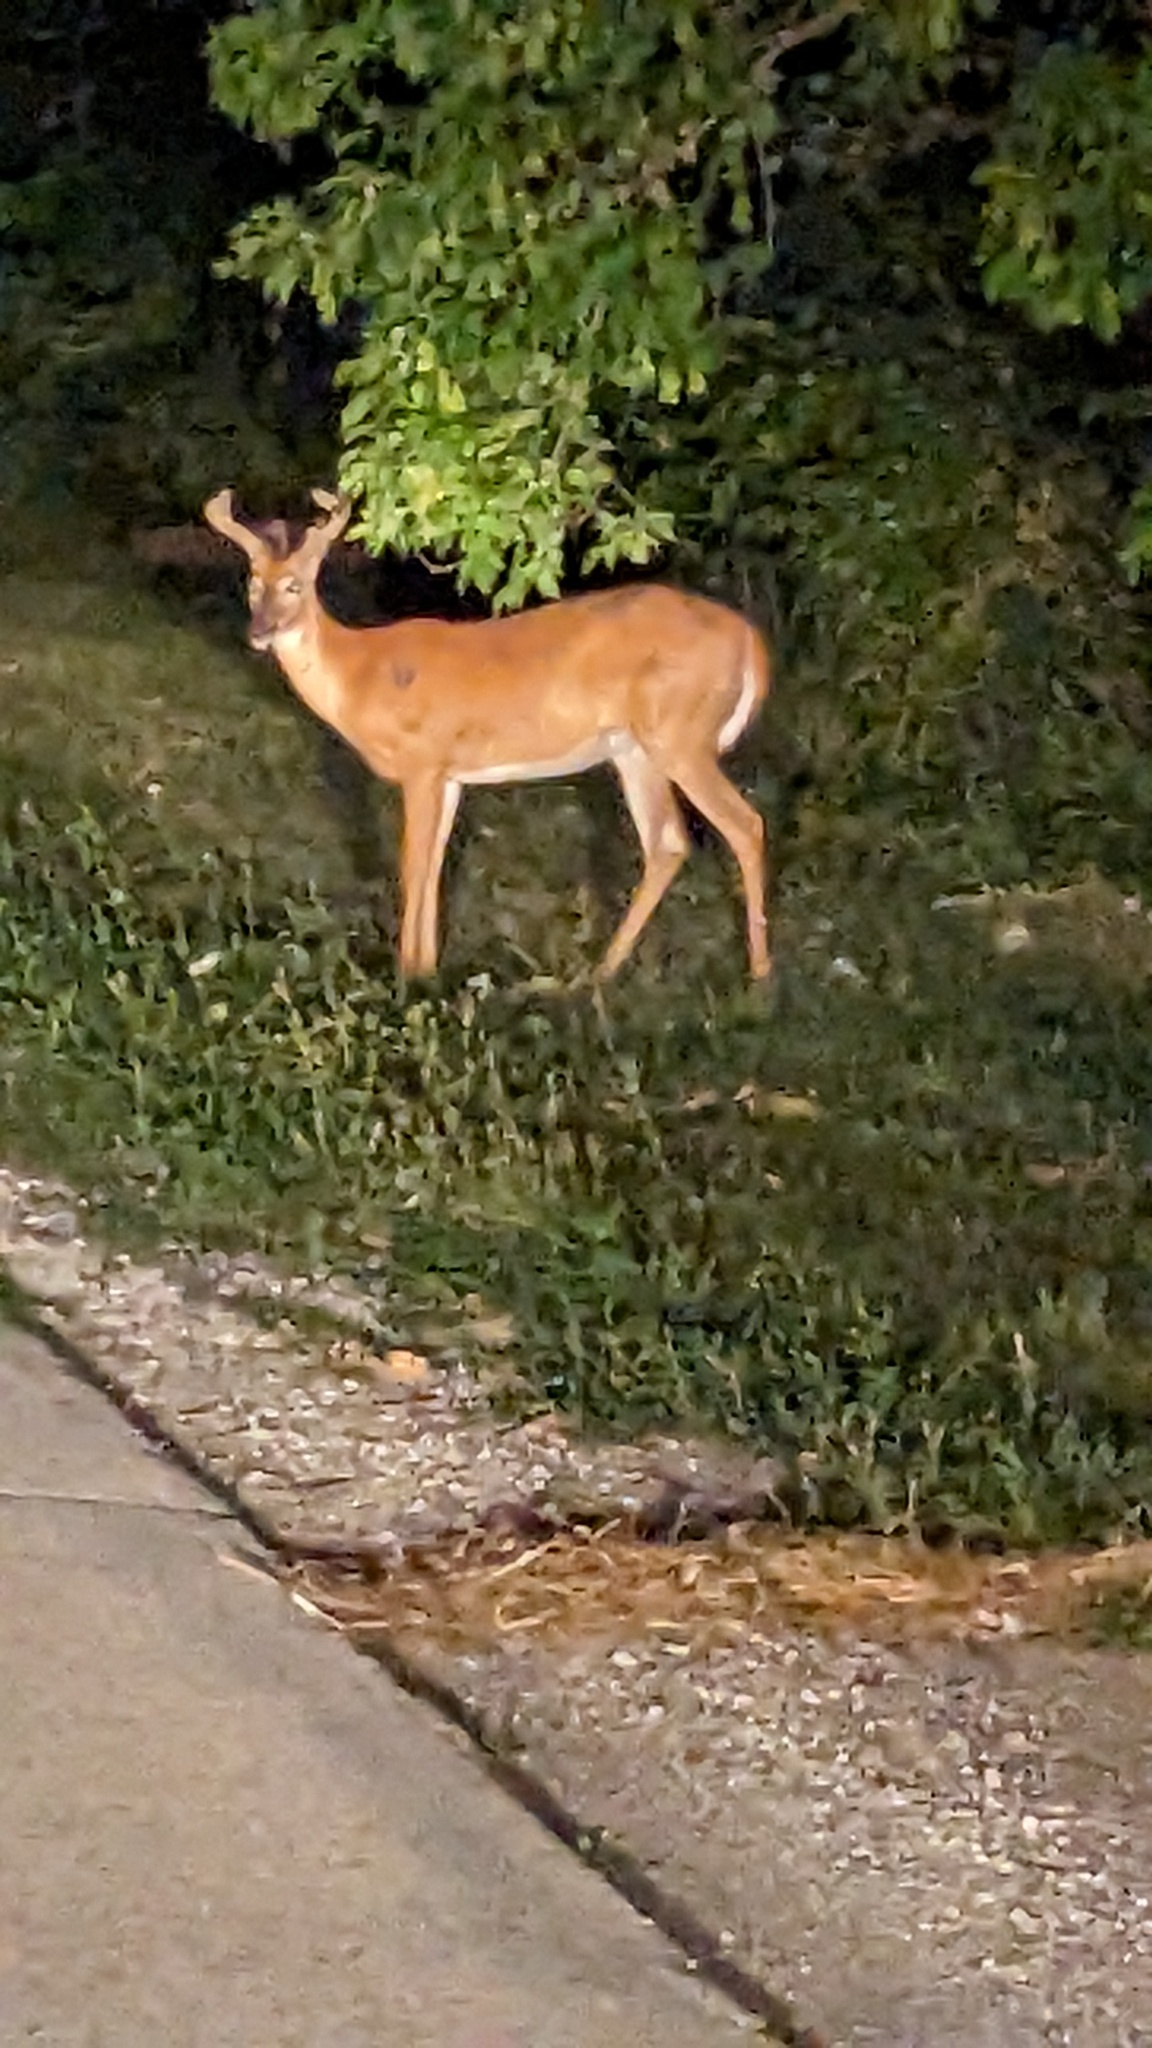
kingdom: Animalia
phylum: Chordata
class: Mammalia
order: Artiodactyla
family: Cervidae
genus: Odocoileus
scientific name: Odocoileus virginianus
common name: White-tailed deer
